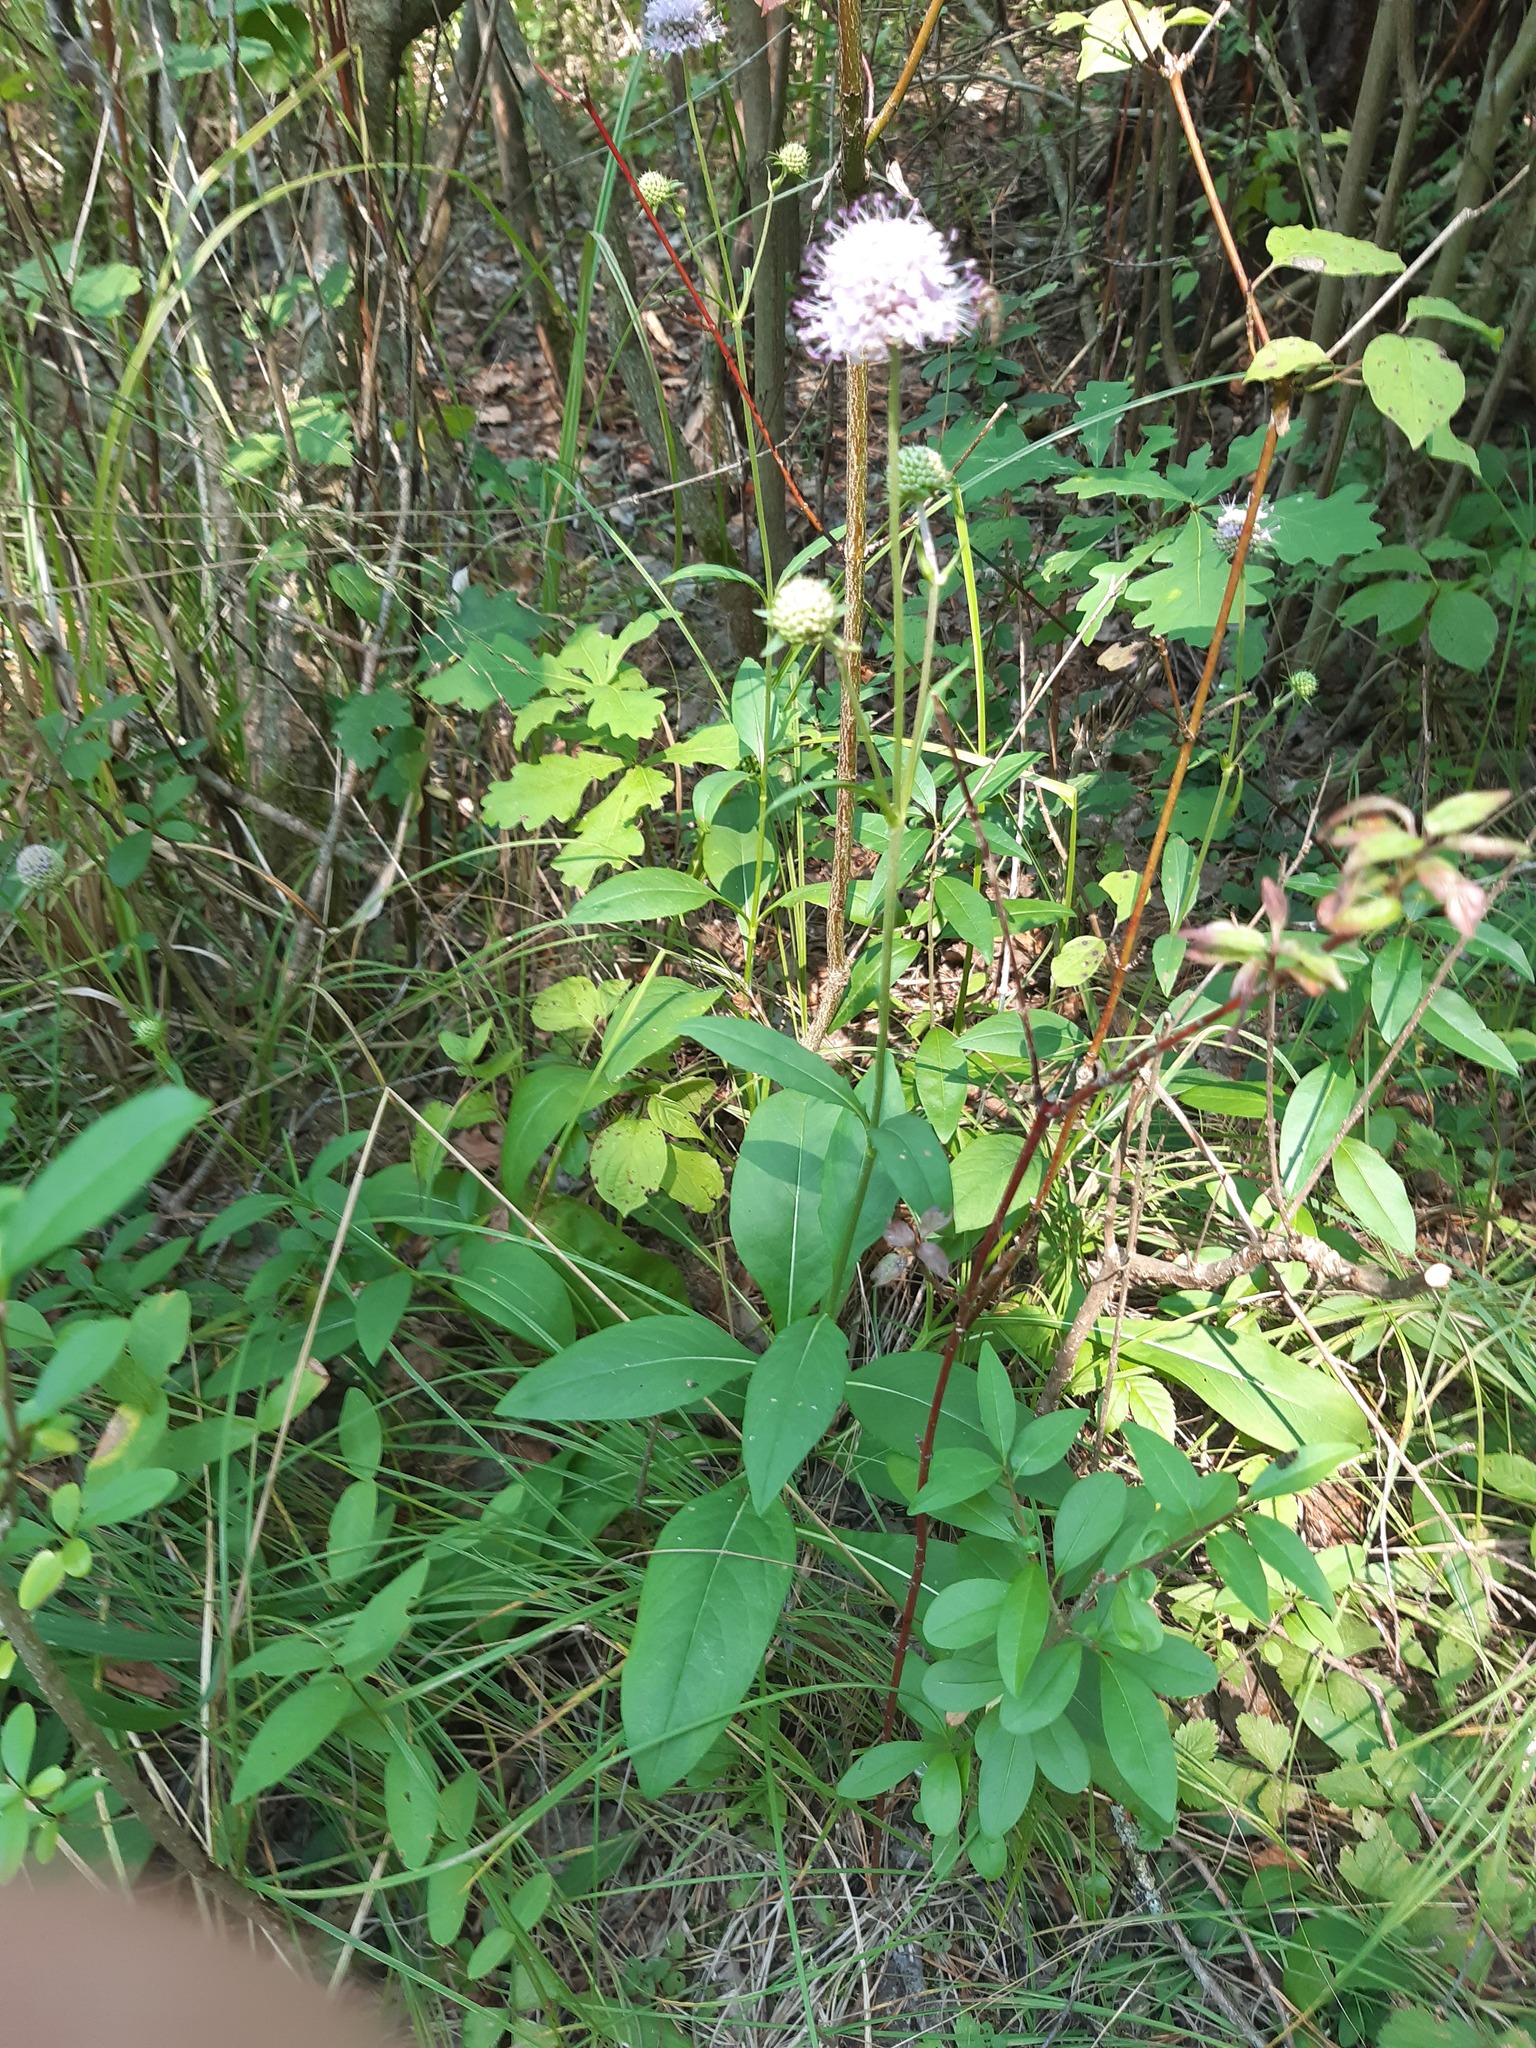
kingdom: Plantae
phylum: Tracheophyta
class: Magnoliopsida
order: Dipsacales
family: Caprifoliaceae
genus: Succisa
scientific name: Succisa pratensis
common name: Devil's-bit
